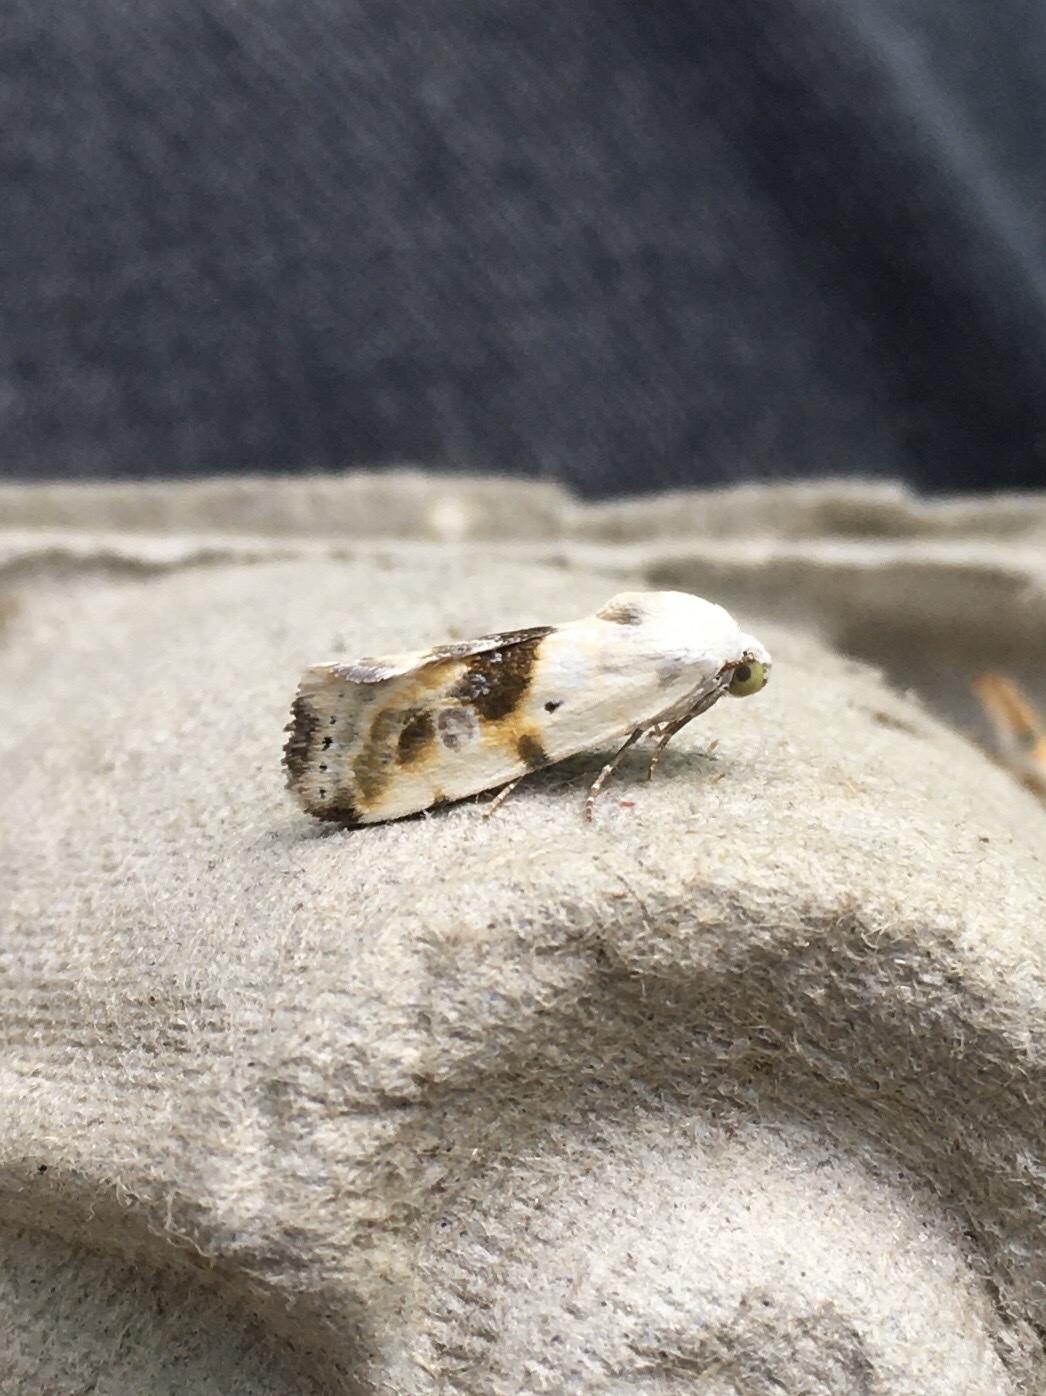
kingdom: Animalia
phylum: Arthropoda
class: Insecta
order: Lepidoptera
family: Noctuidae
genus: Acontia
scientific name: Acontia candefacta
